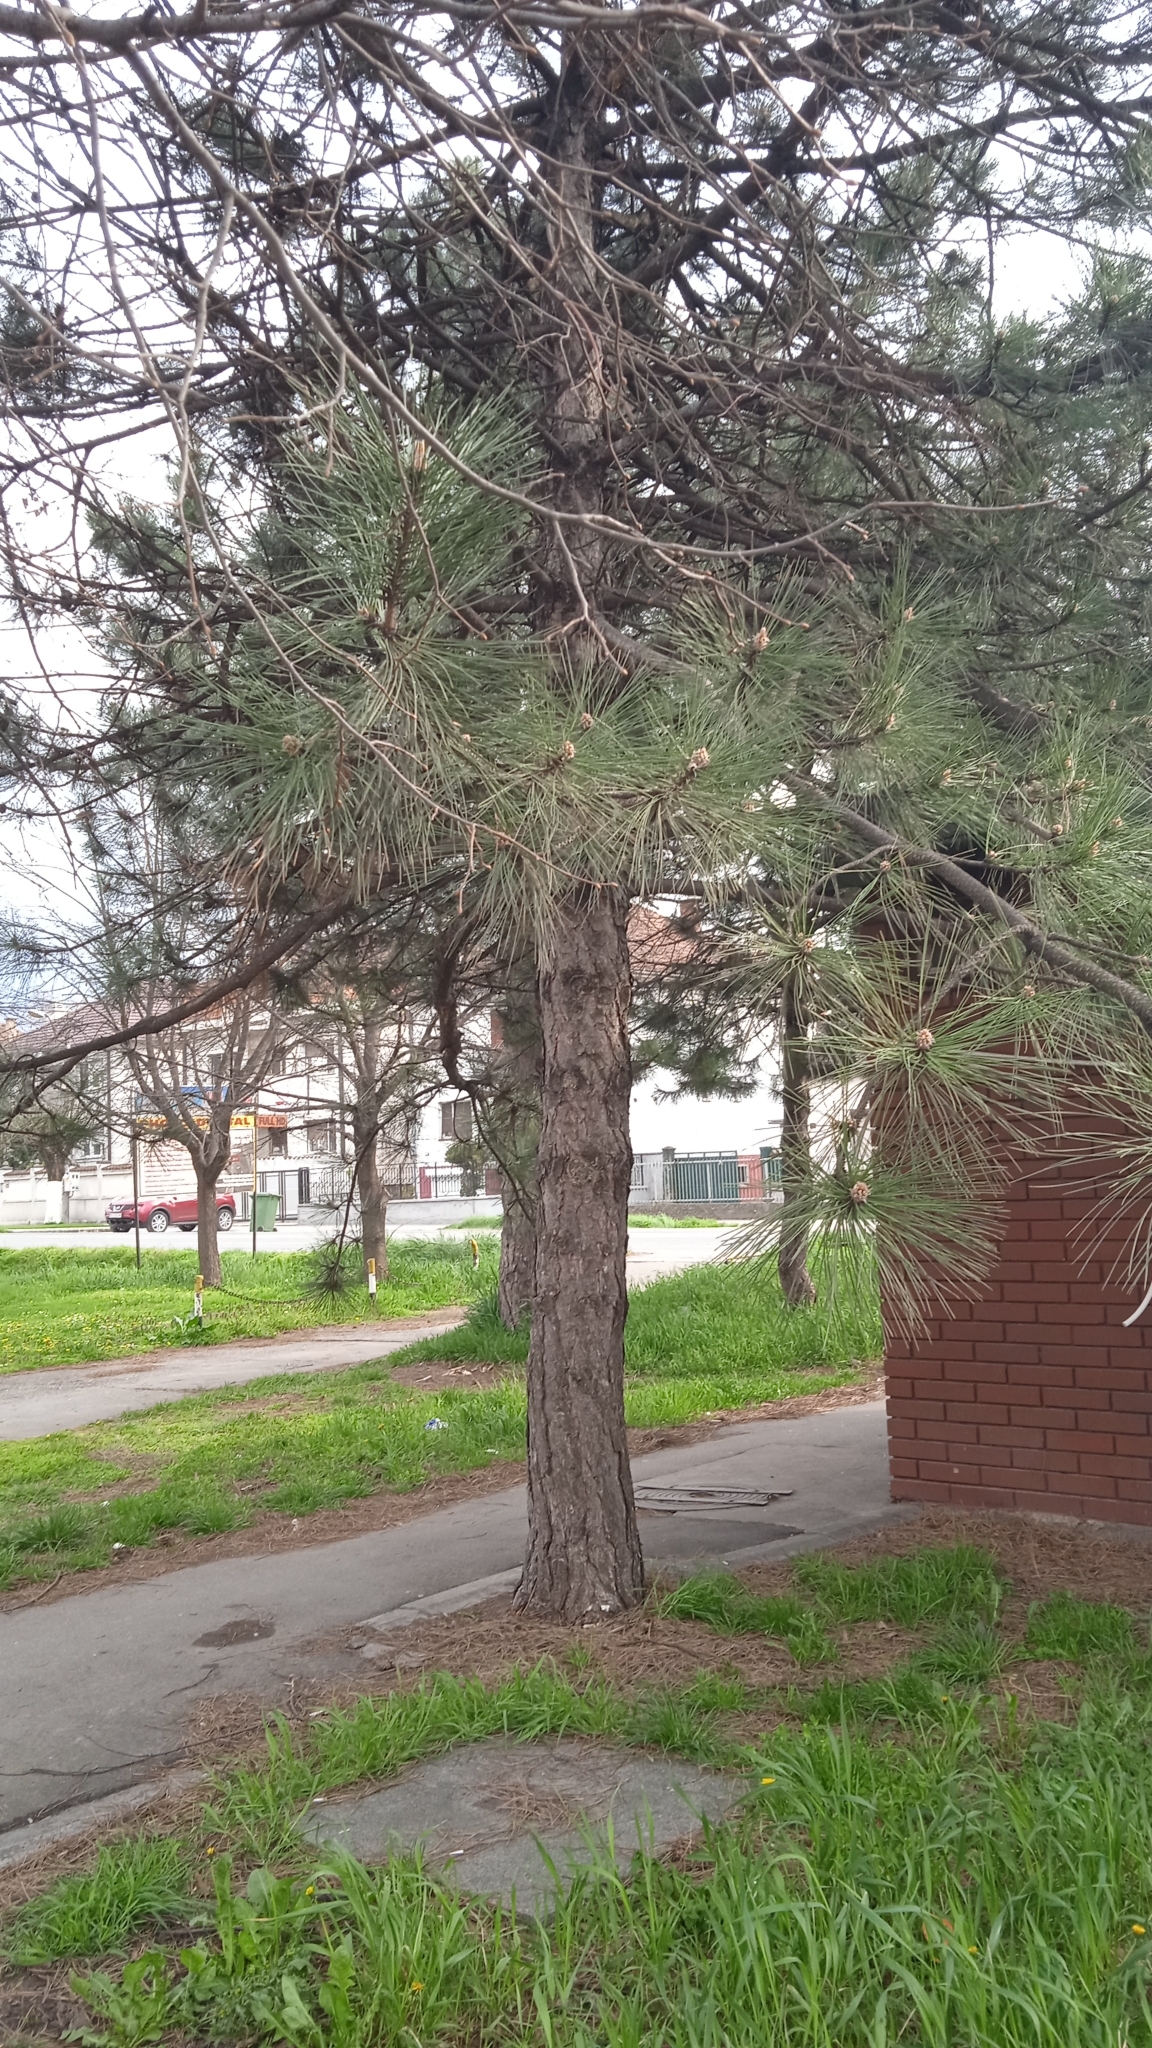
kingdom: Plantae
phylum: Tracheophyta
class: Pinopsida
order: Pinales
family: Pinaceae
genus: Pinus
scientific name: Pinus nigra
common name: Austrian pine
